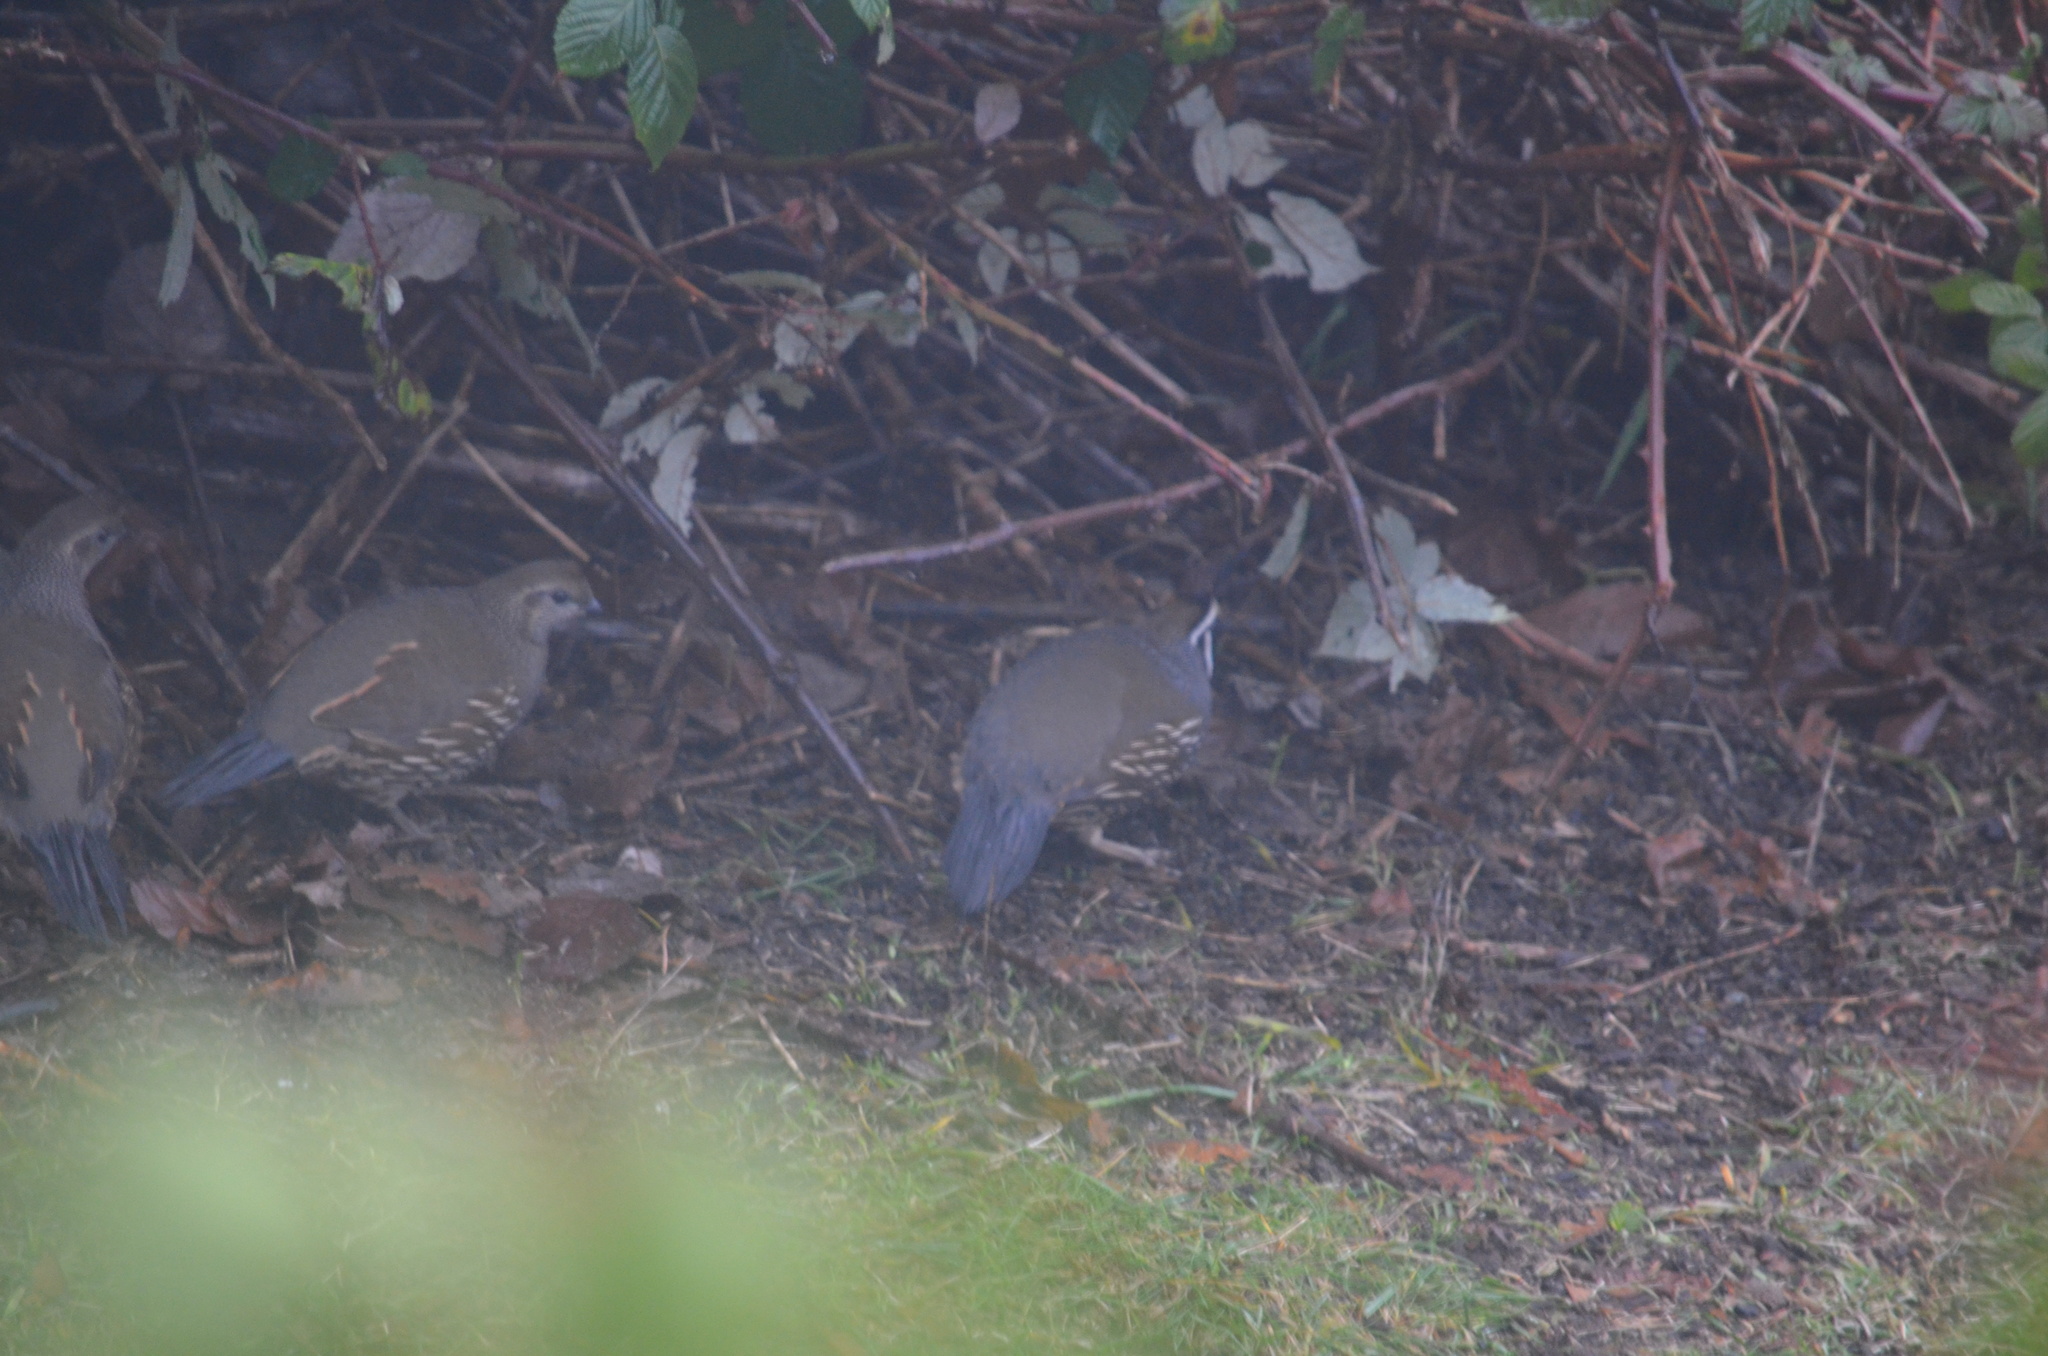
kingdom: Animalia
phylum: Chordata
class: Aves
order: Galliformes
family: Odontophoridae
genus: Callipepla
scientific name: Callipepla californica
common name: California quail
